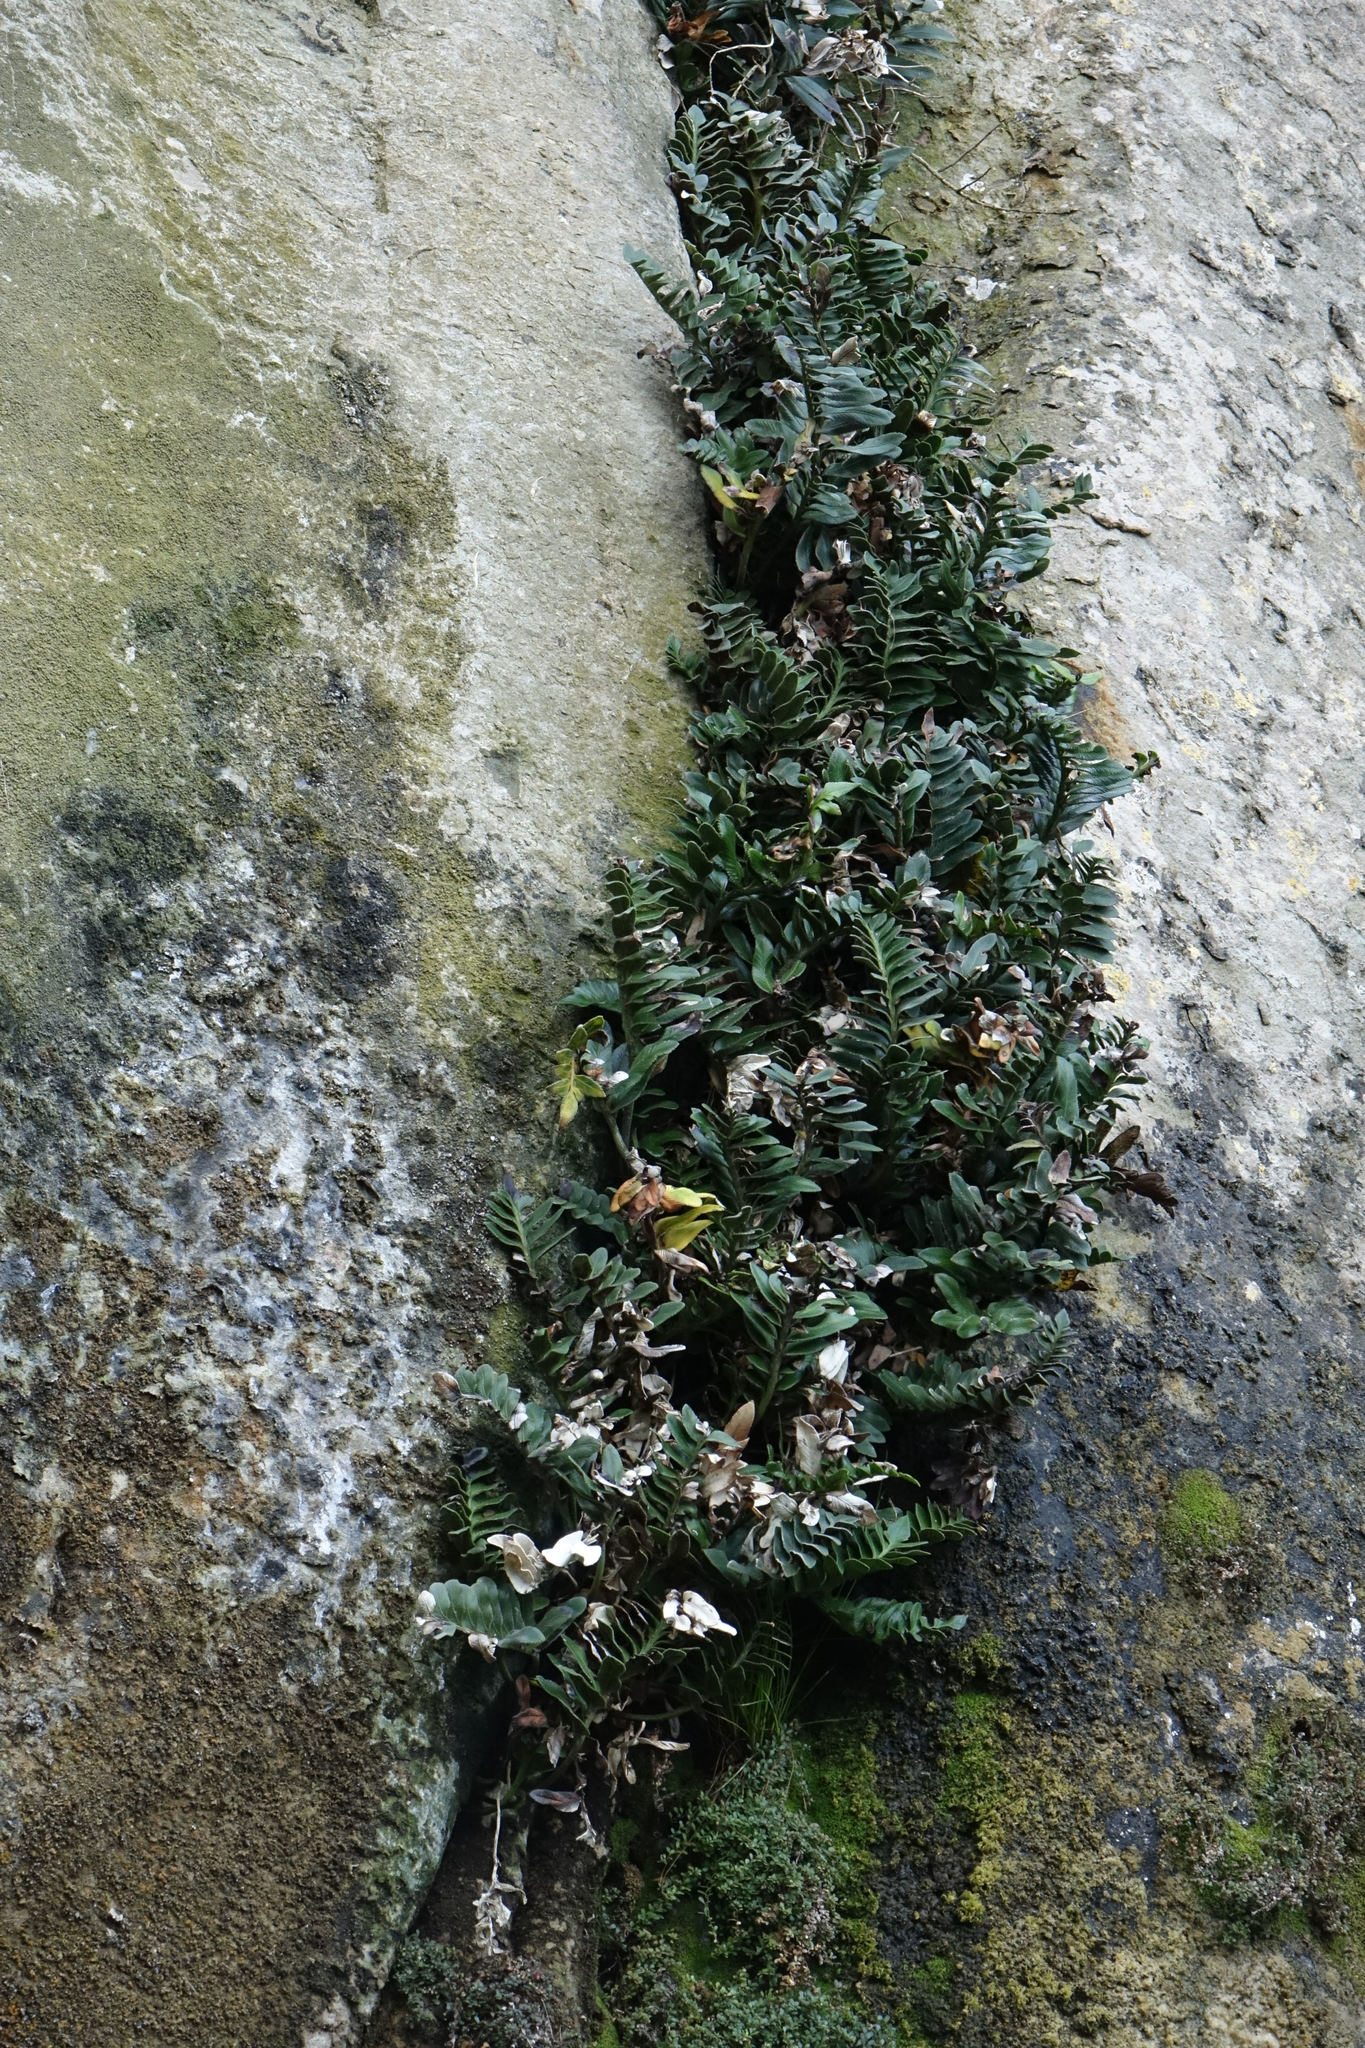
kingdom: Plantae
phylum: Tracheophyta
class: Polypodiopsida
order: Polypodiales
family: Aspleniaceae
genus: Asplenium
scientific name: Asplenium obtusatum
